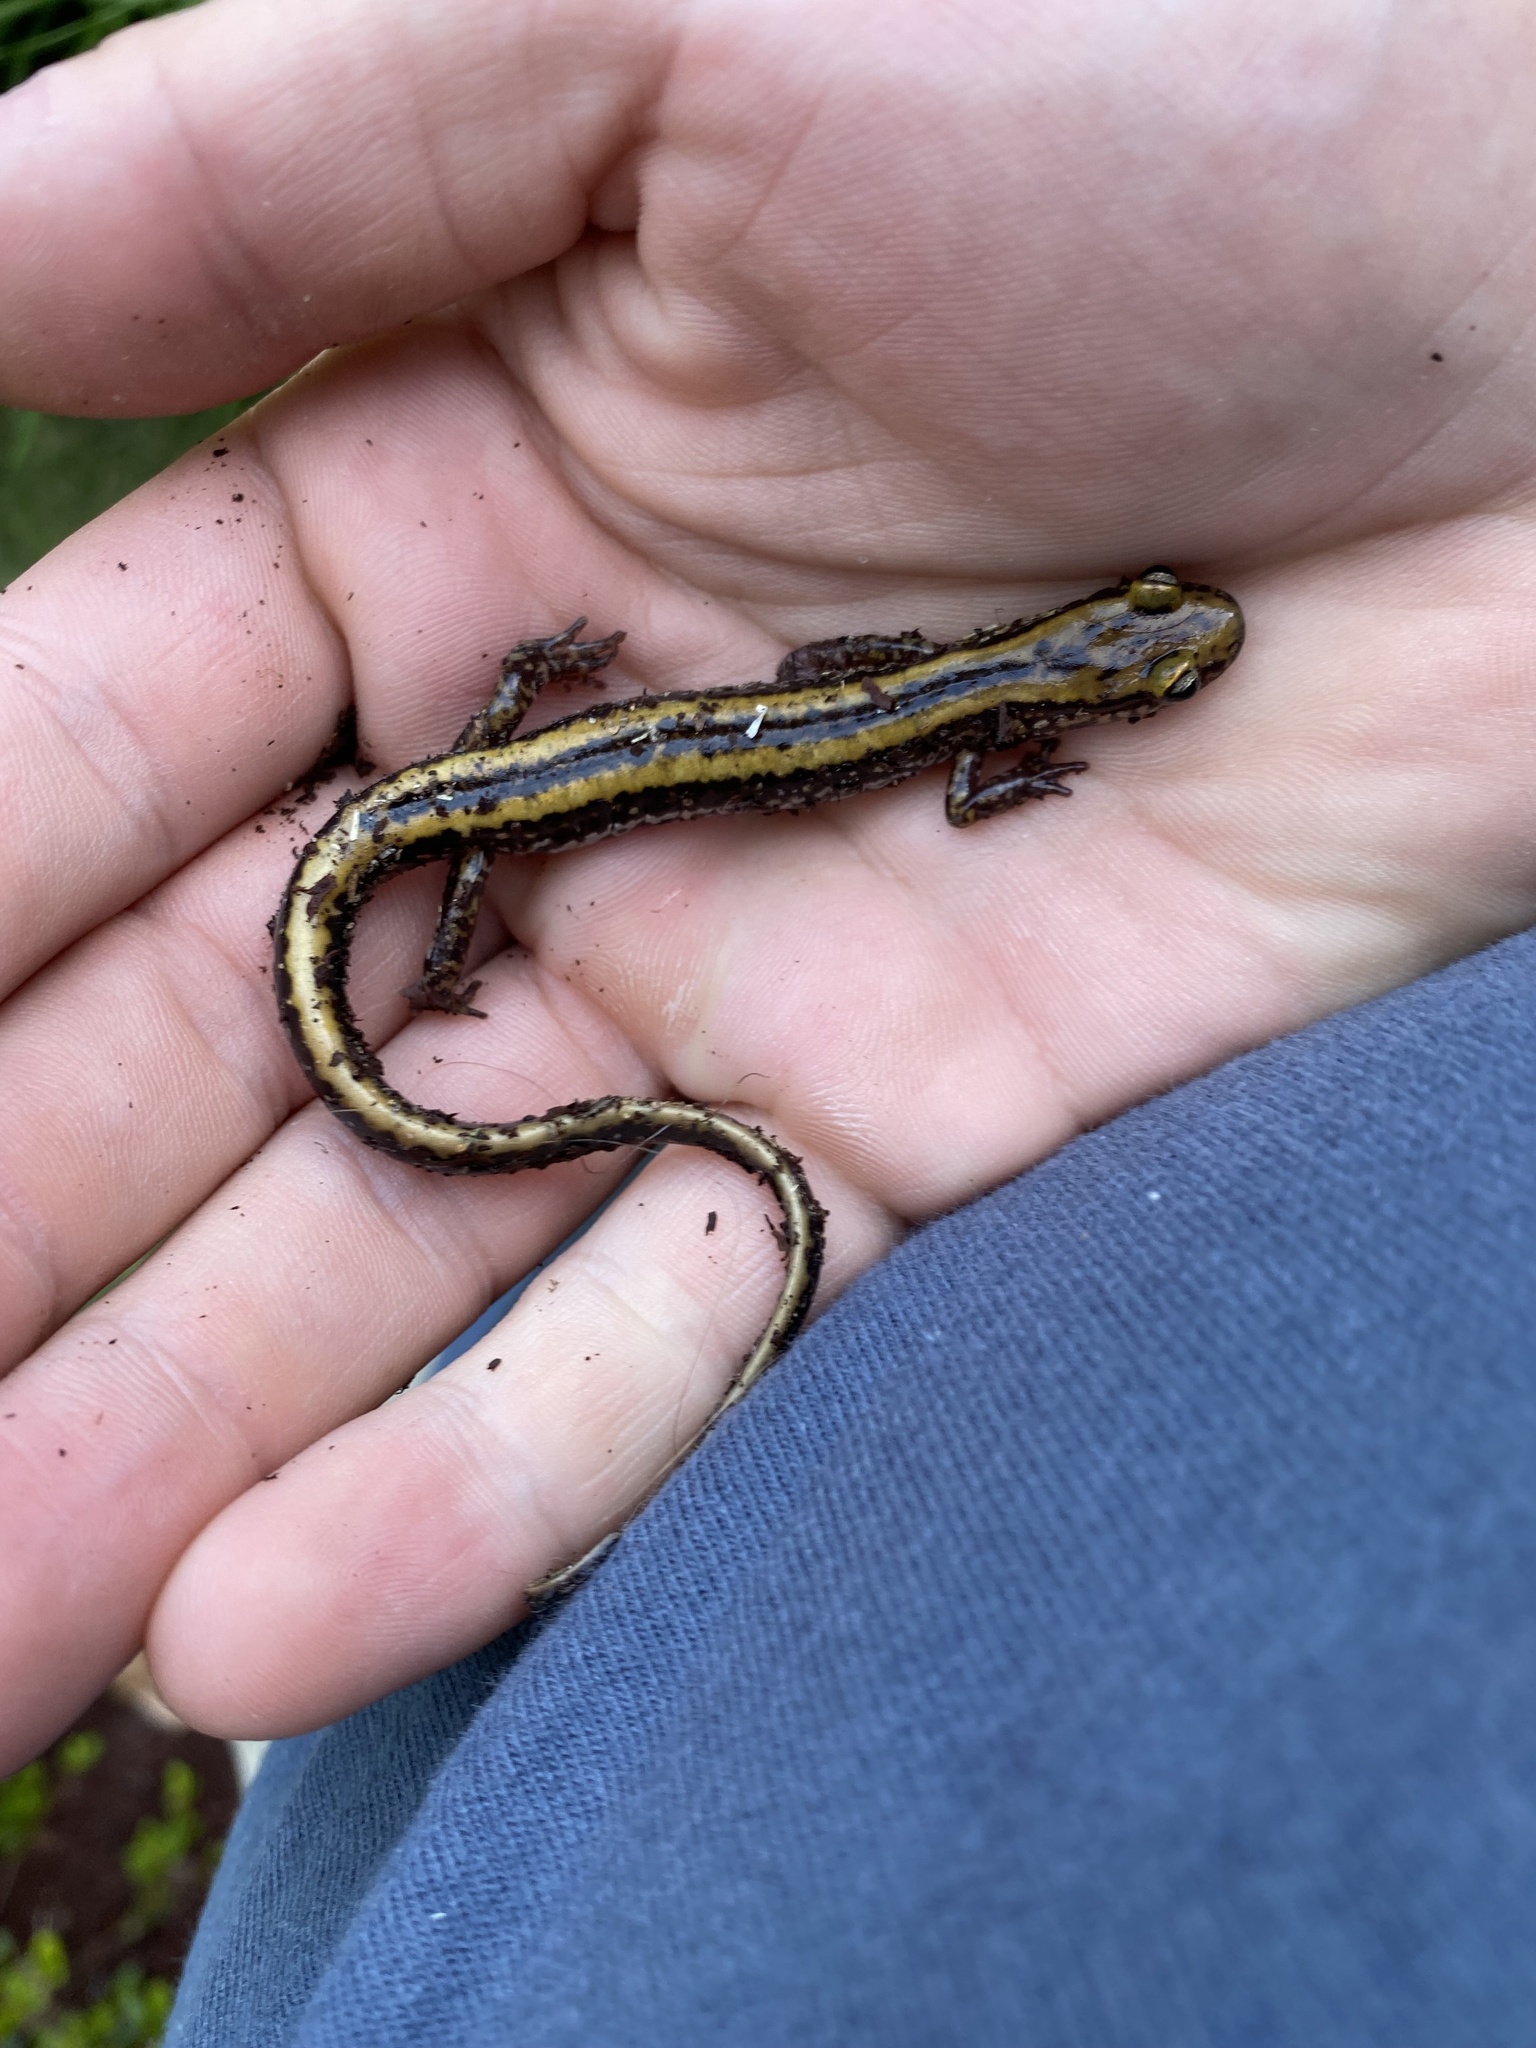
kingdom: Animalia
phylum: Chordata
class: Amphibia
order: Caudata
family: Plethodontidae
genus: Eurycea
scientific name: Eurycea guttolineata
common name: Three-lined salamander
